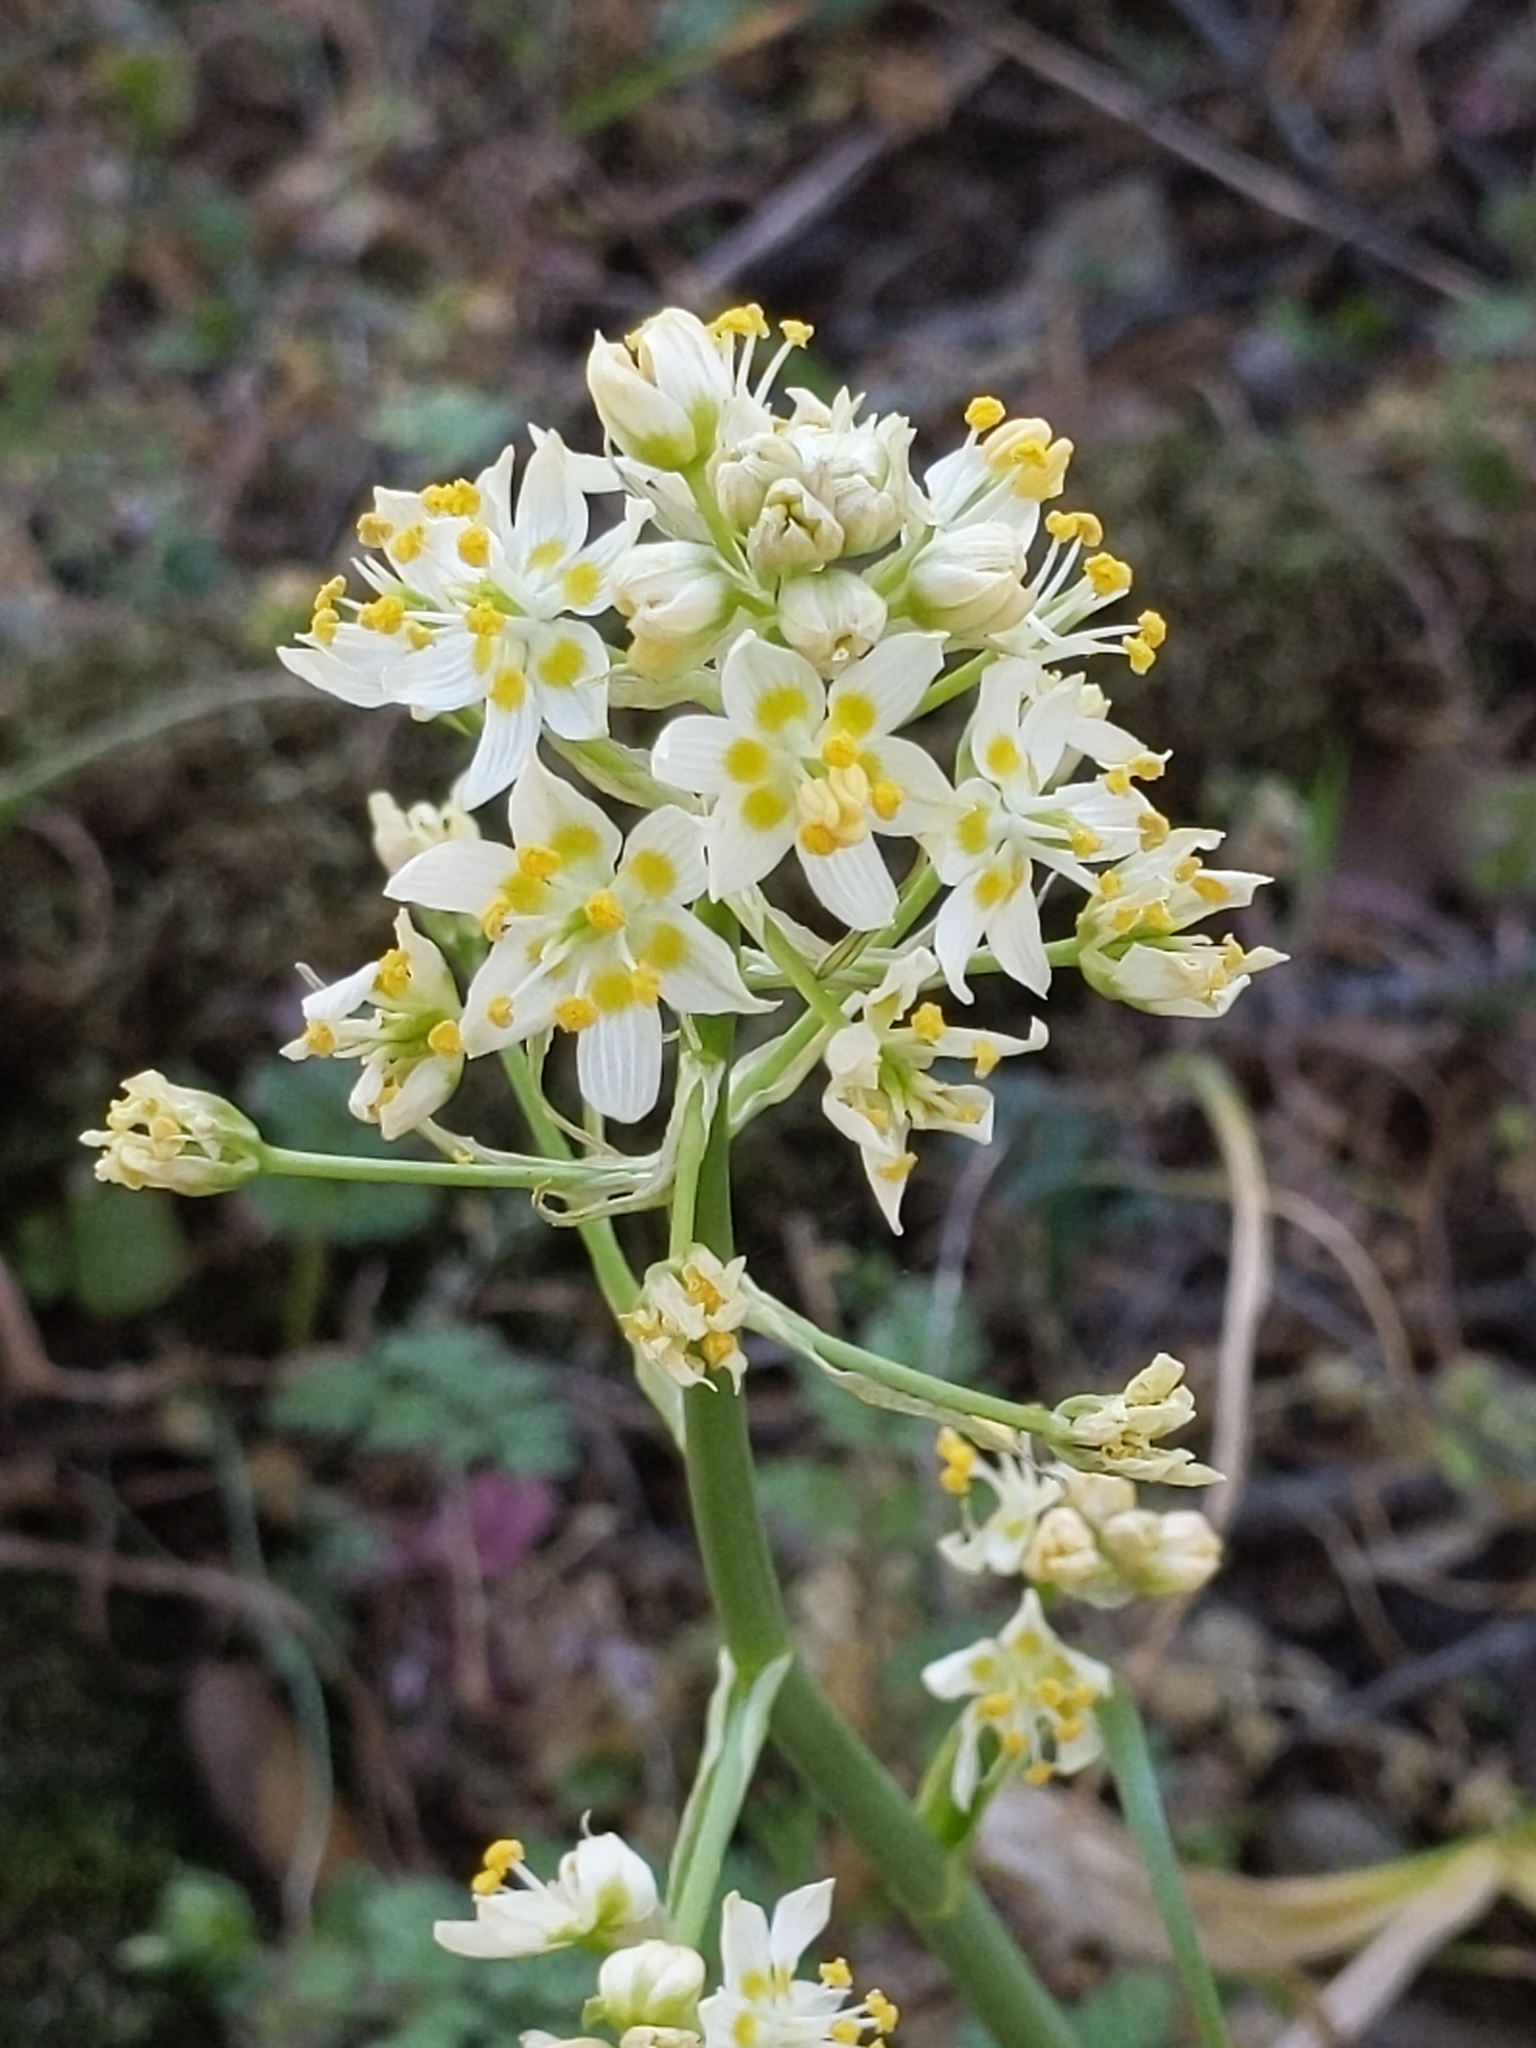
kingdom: Plantae
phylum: Tracheophyta
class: Liliopsida
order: Liliales
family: Melanthiaceae
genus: Toxicoscordion
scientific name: Toxicoscordion fremontii
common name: Fremont's death camas
